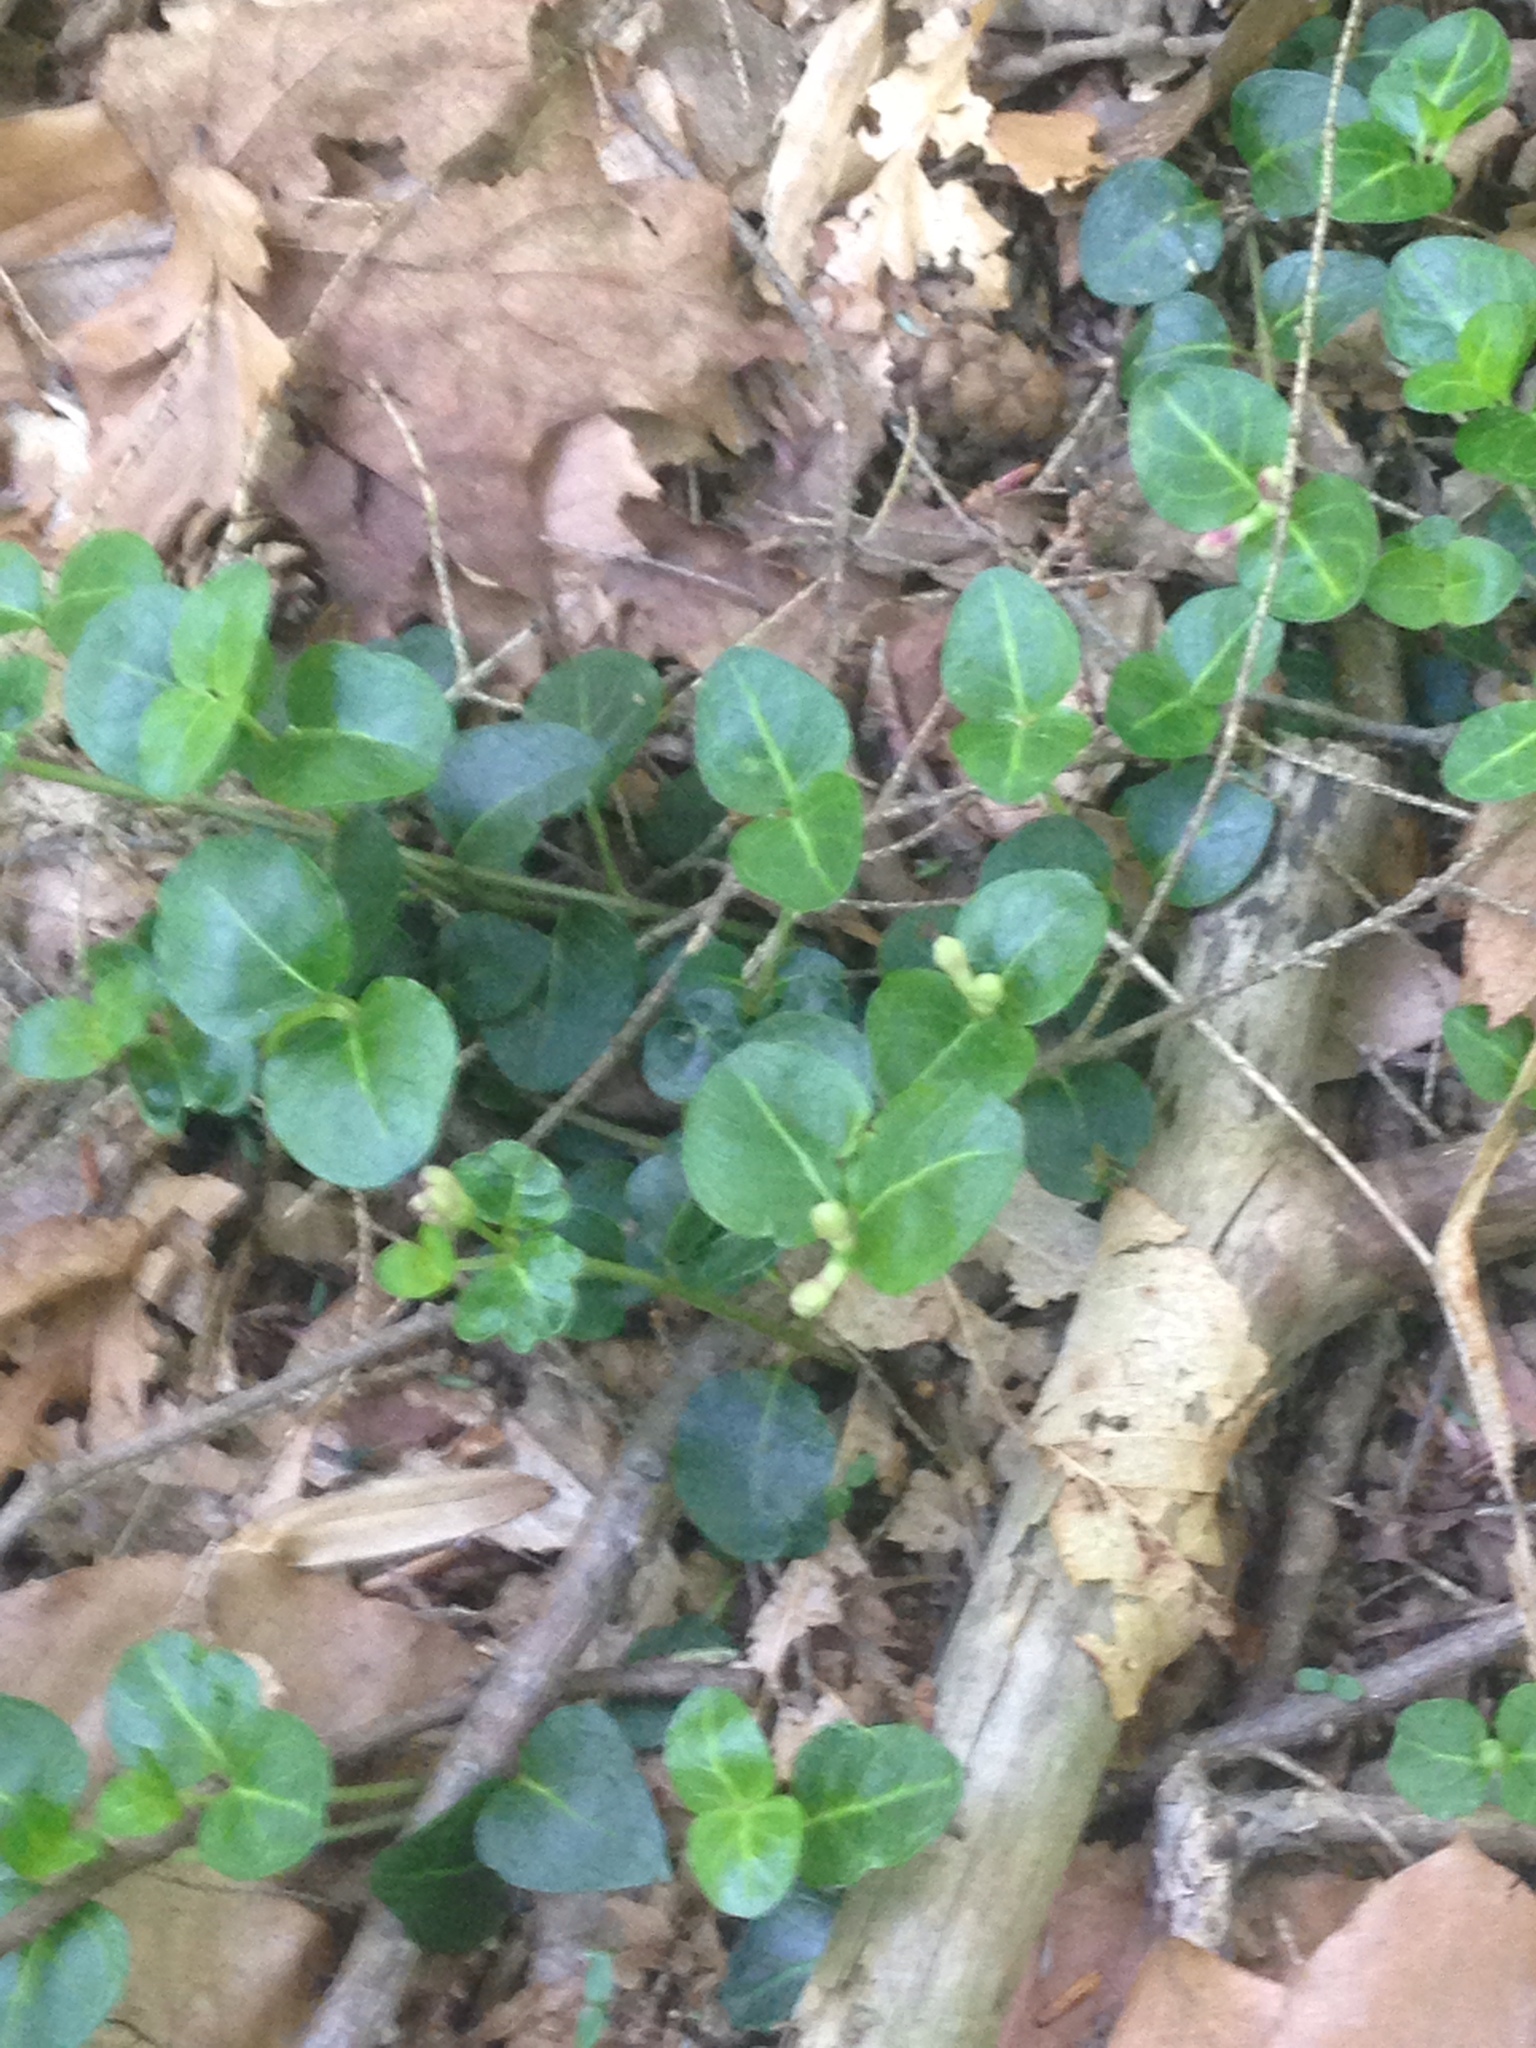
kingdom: Plantae
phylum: Tracheophyta
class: Magnoliopsida
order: Gentianales
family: Rubiaceae
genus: Mitchella
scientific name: Mitchella repens
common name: Partridge-berry
